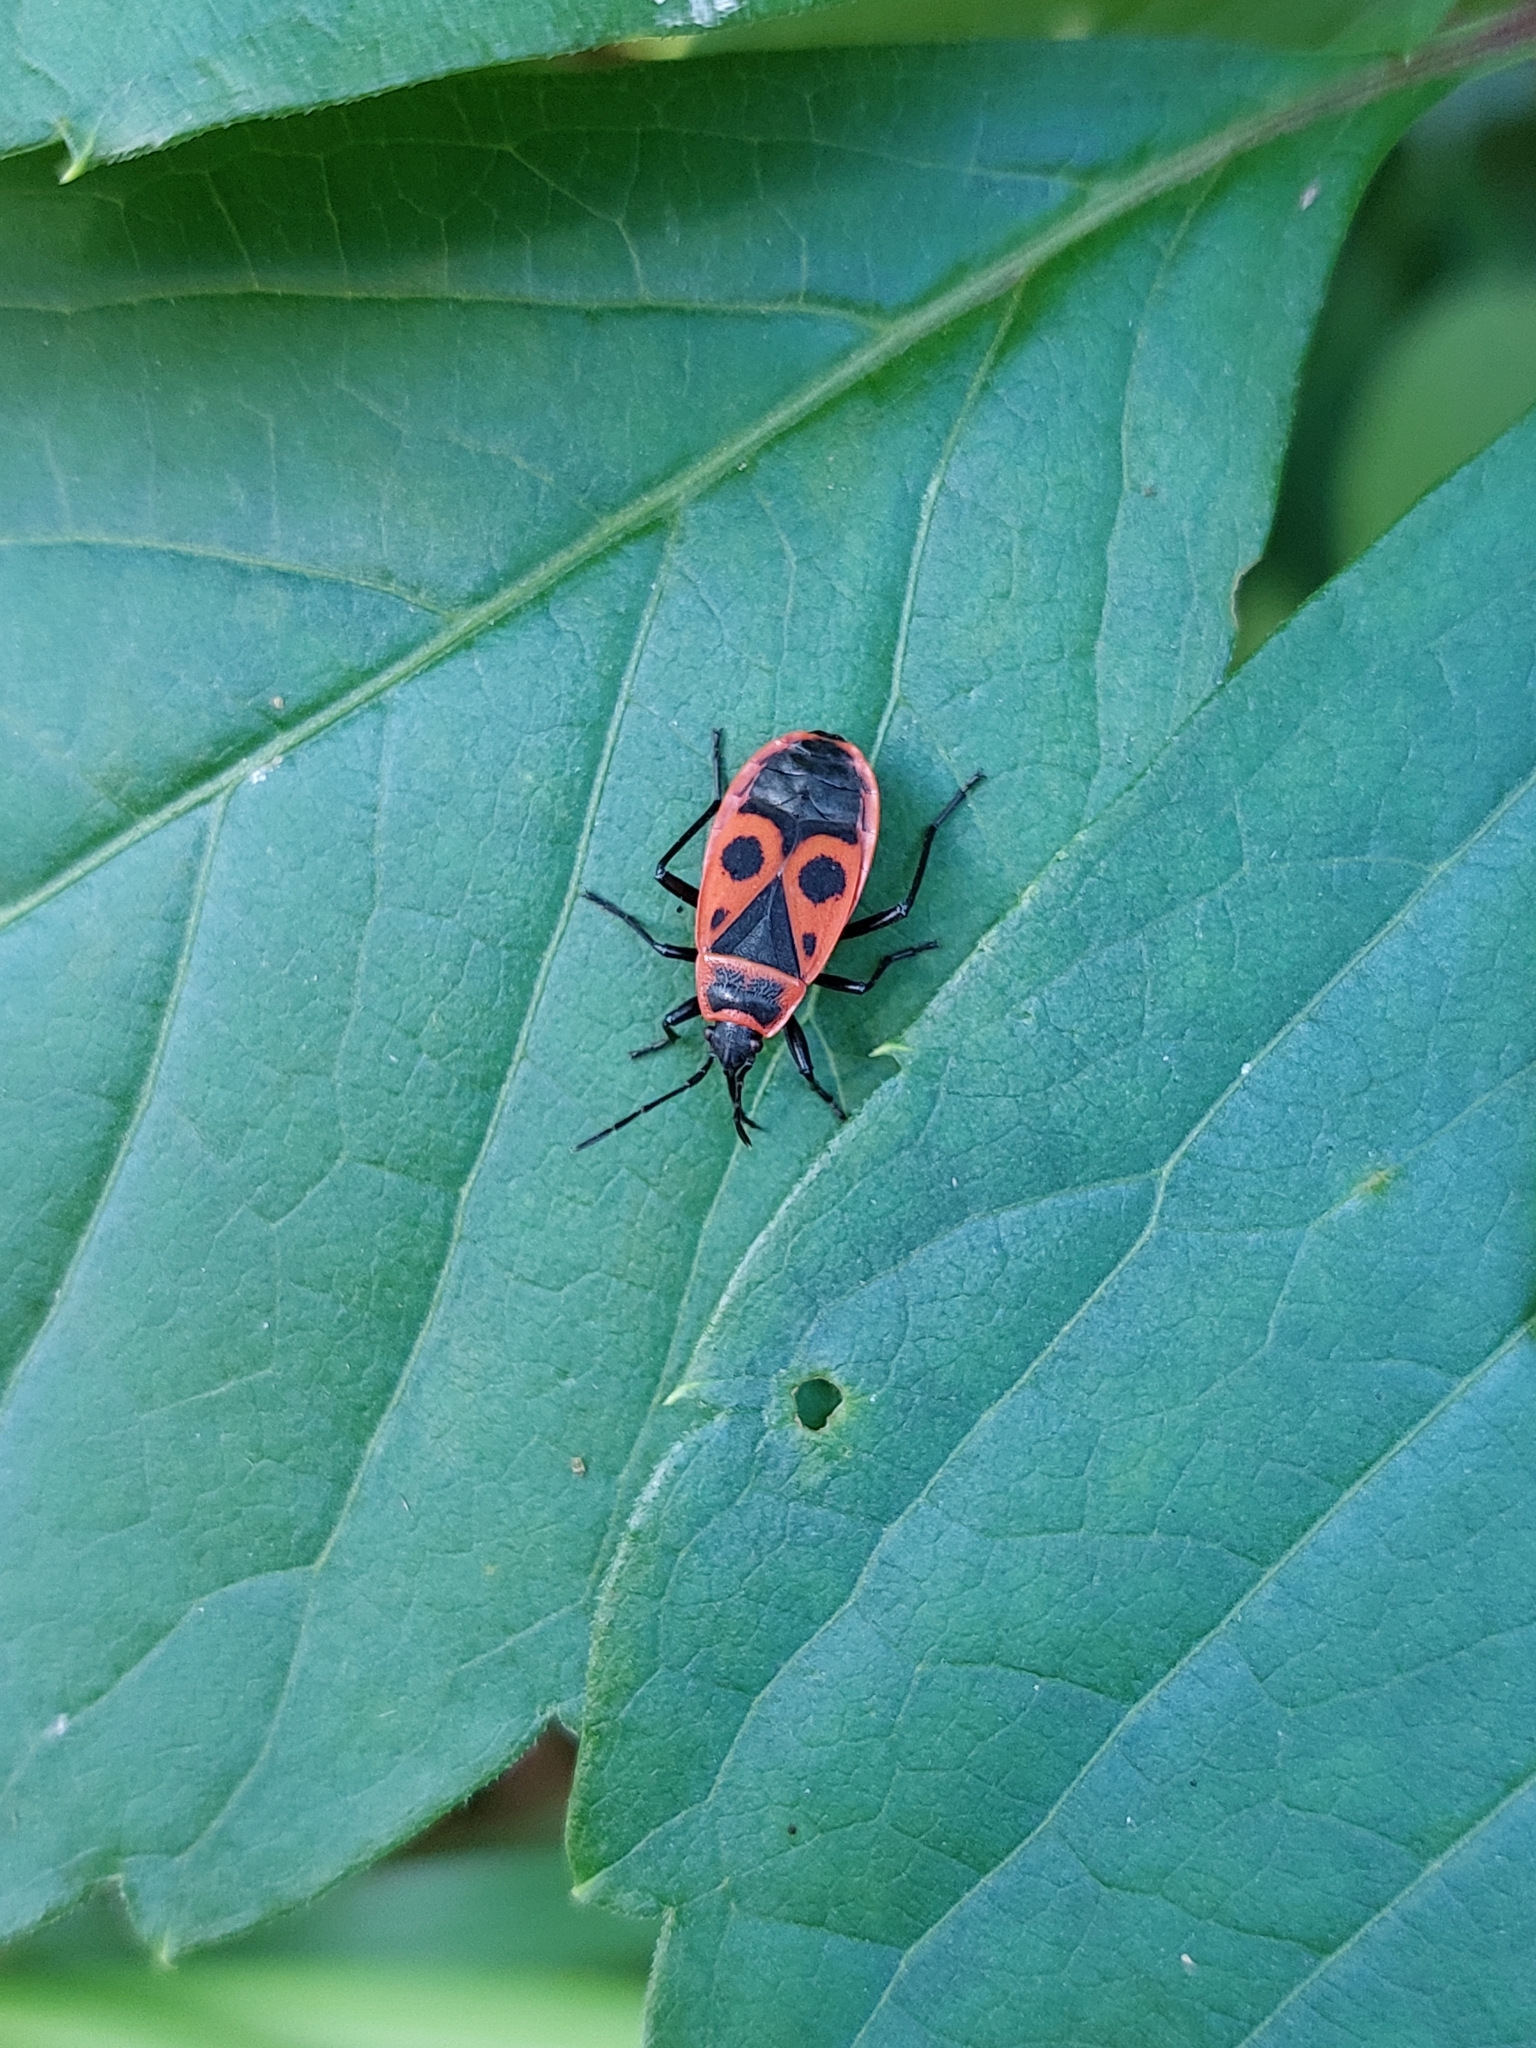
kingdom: Animalia
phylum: Arthropoda
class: Insecta
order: Hemiptera
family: Pyrrhocoridae
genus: Pyrrhocoris
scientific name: Pyrrhocoris apterus
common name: Firebug
